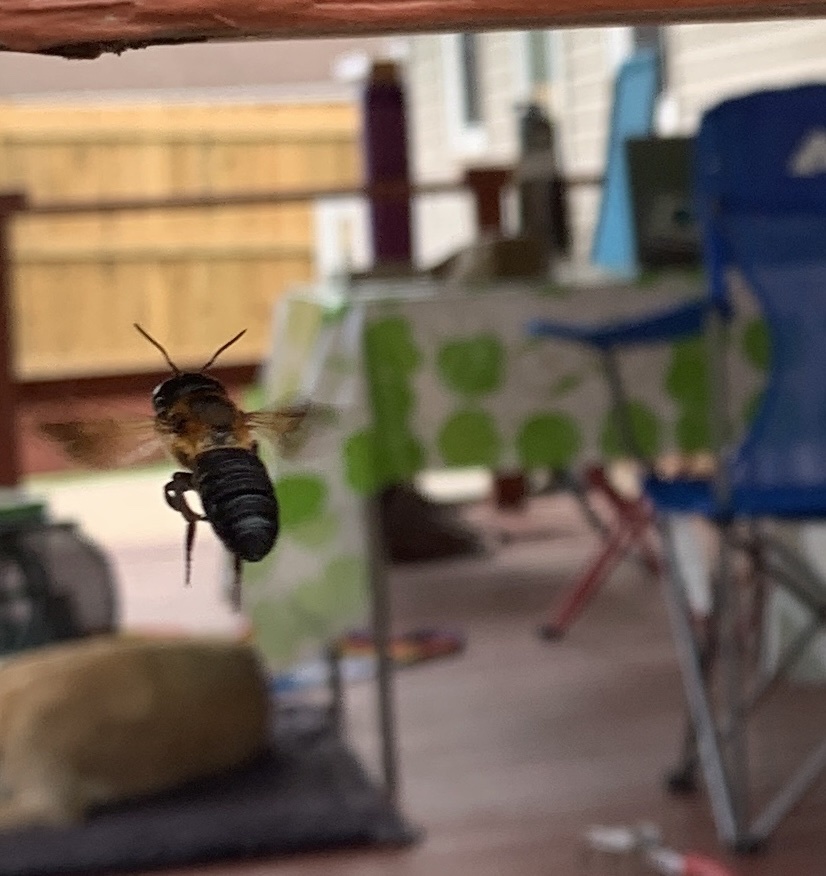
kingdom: Animalia
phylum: Arthropoda
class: Insecta
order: Hymenoptera
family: Megachilidae
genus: Megachile
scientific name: Megachile sculpturalis
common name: Sculptured resin bee
